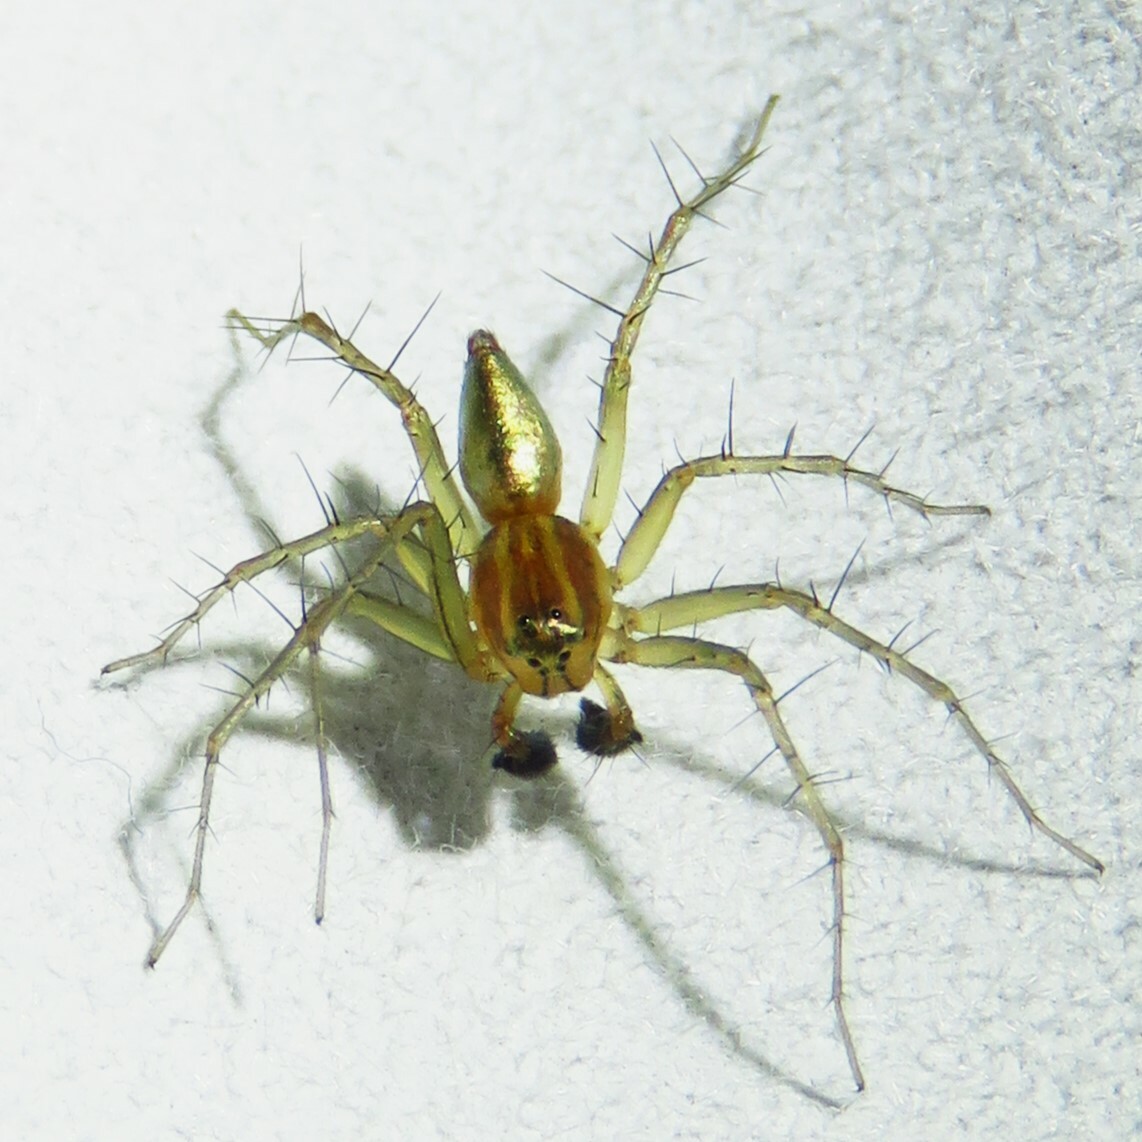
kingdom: Animalia
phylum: Arthropoda
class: Arachnida
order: Araneae
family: Oxyopidae
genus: Oxyopes
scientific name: Oxyopes salticus
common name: Lynx spiders
